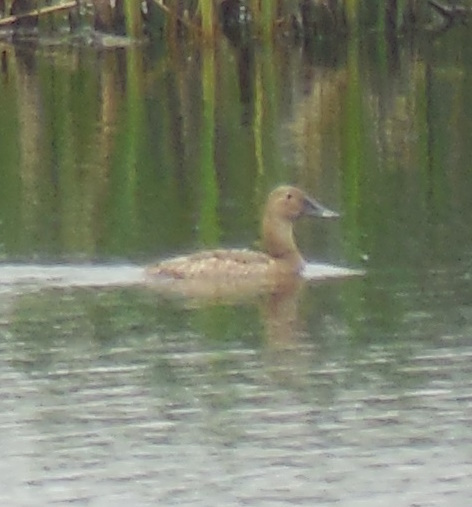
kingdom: Animalia
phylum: Chordata
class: Aves
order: Anseriformes
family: Anatidae
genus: Aythya
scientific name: Aythya valisineria
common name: Canvasback
